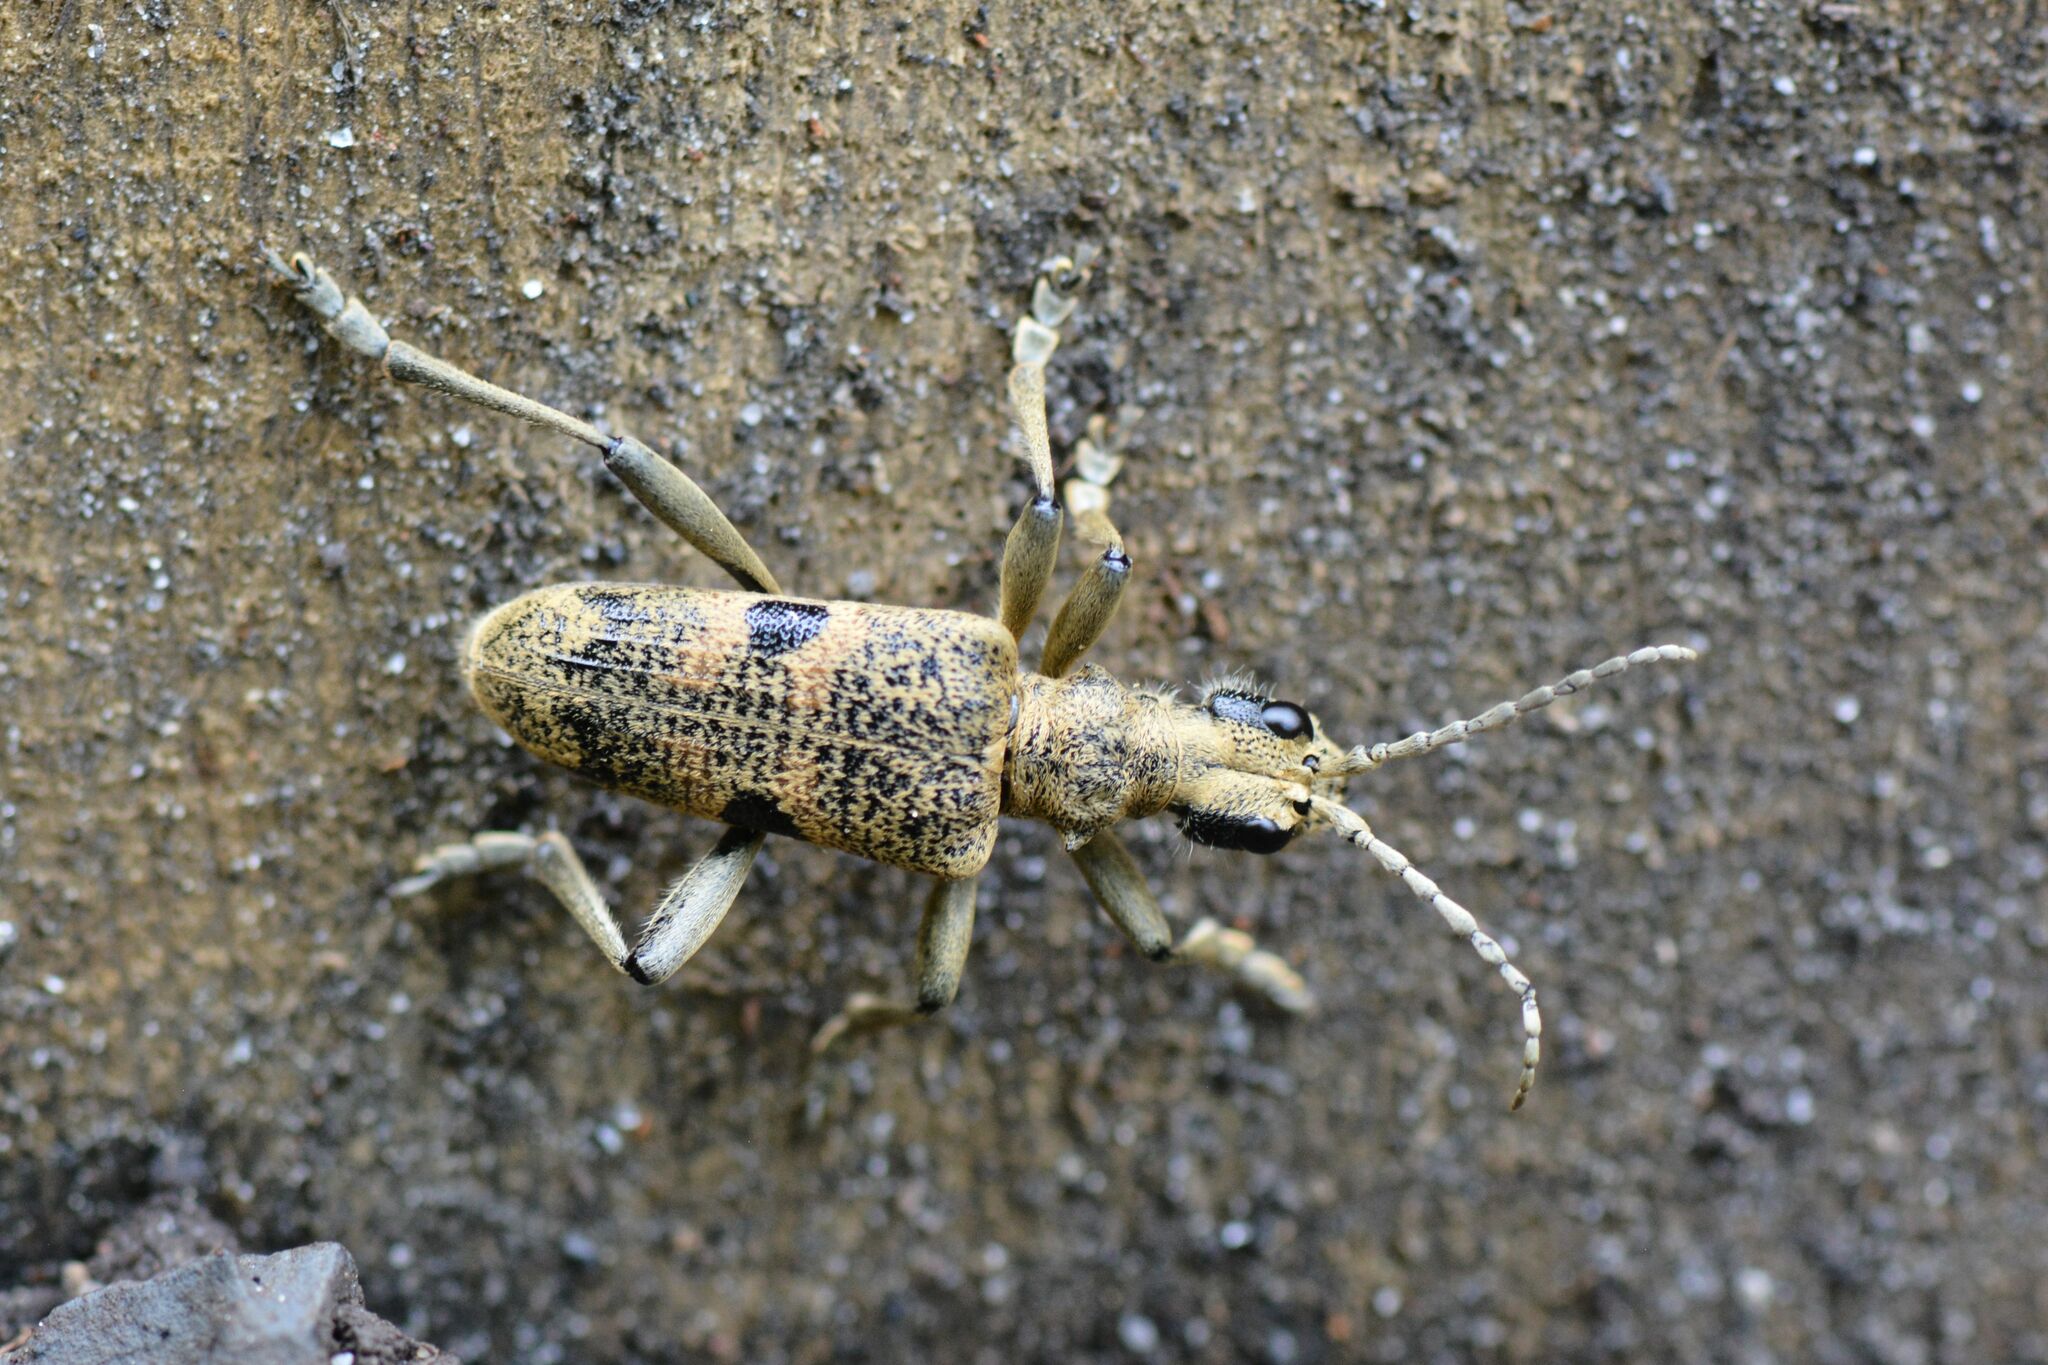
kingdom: Animalia
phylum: Arthropoda
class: Insecta
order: Coleoptera
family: Cerambycidae
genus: Rhagium
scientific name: Rhagium mordax
